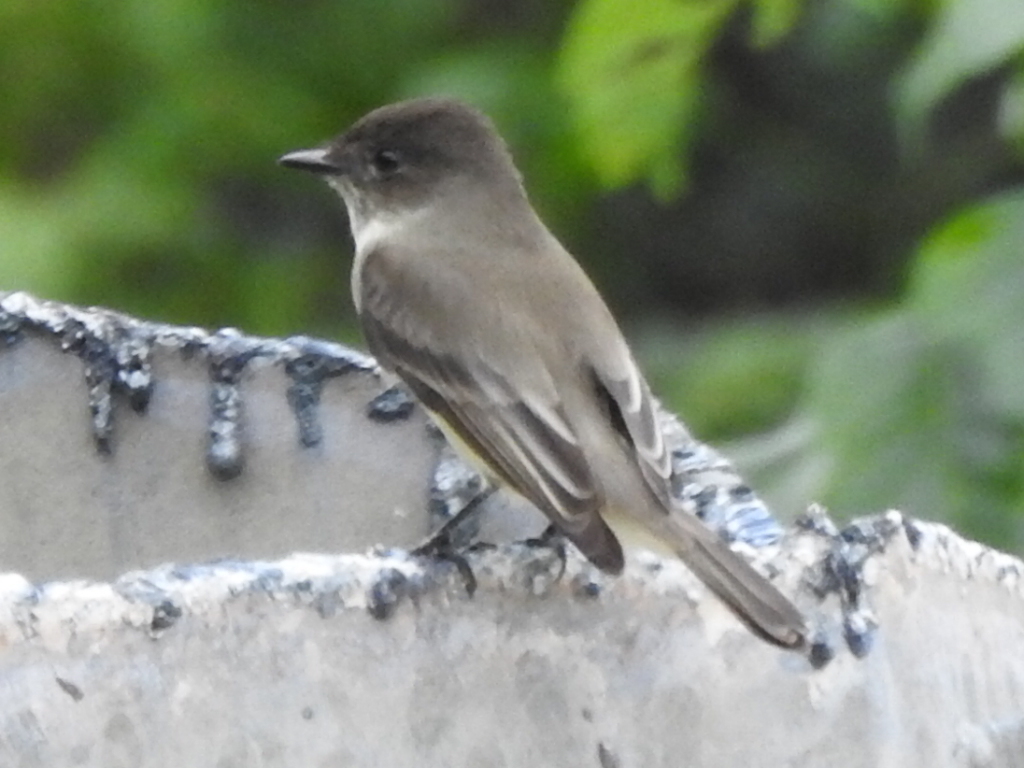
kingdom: Animalia
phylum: Chordata
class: Aves
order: Passeriformes
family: Tyrannidae
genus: Sayornis
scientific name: Sayornis phoebe
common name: Eastern phoebe
